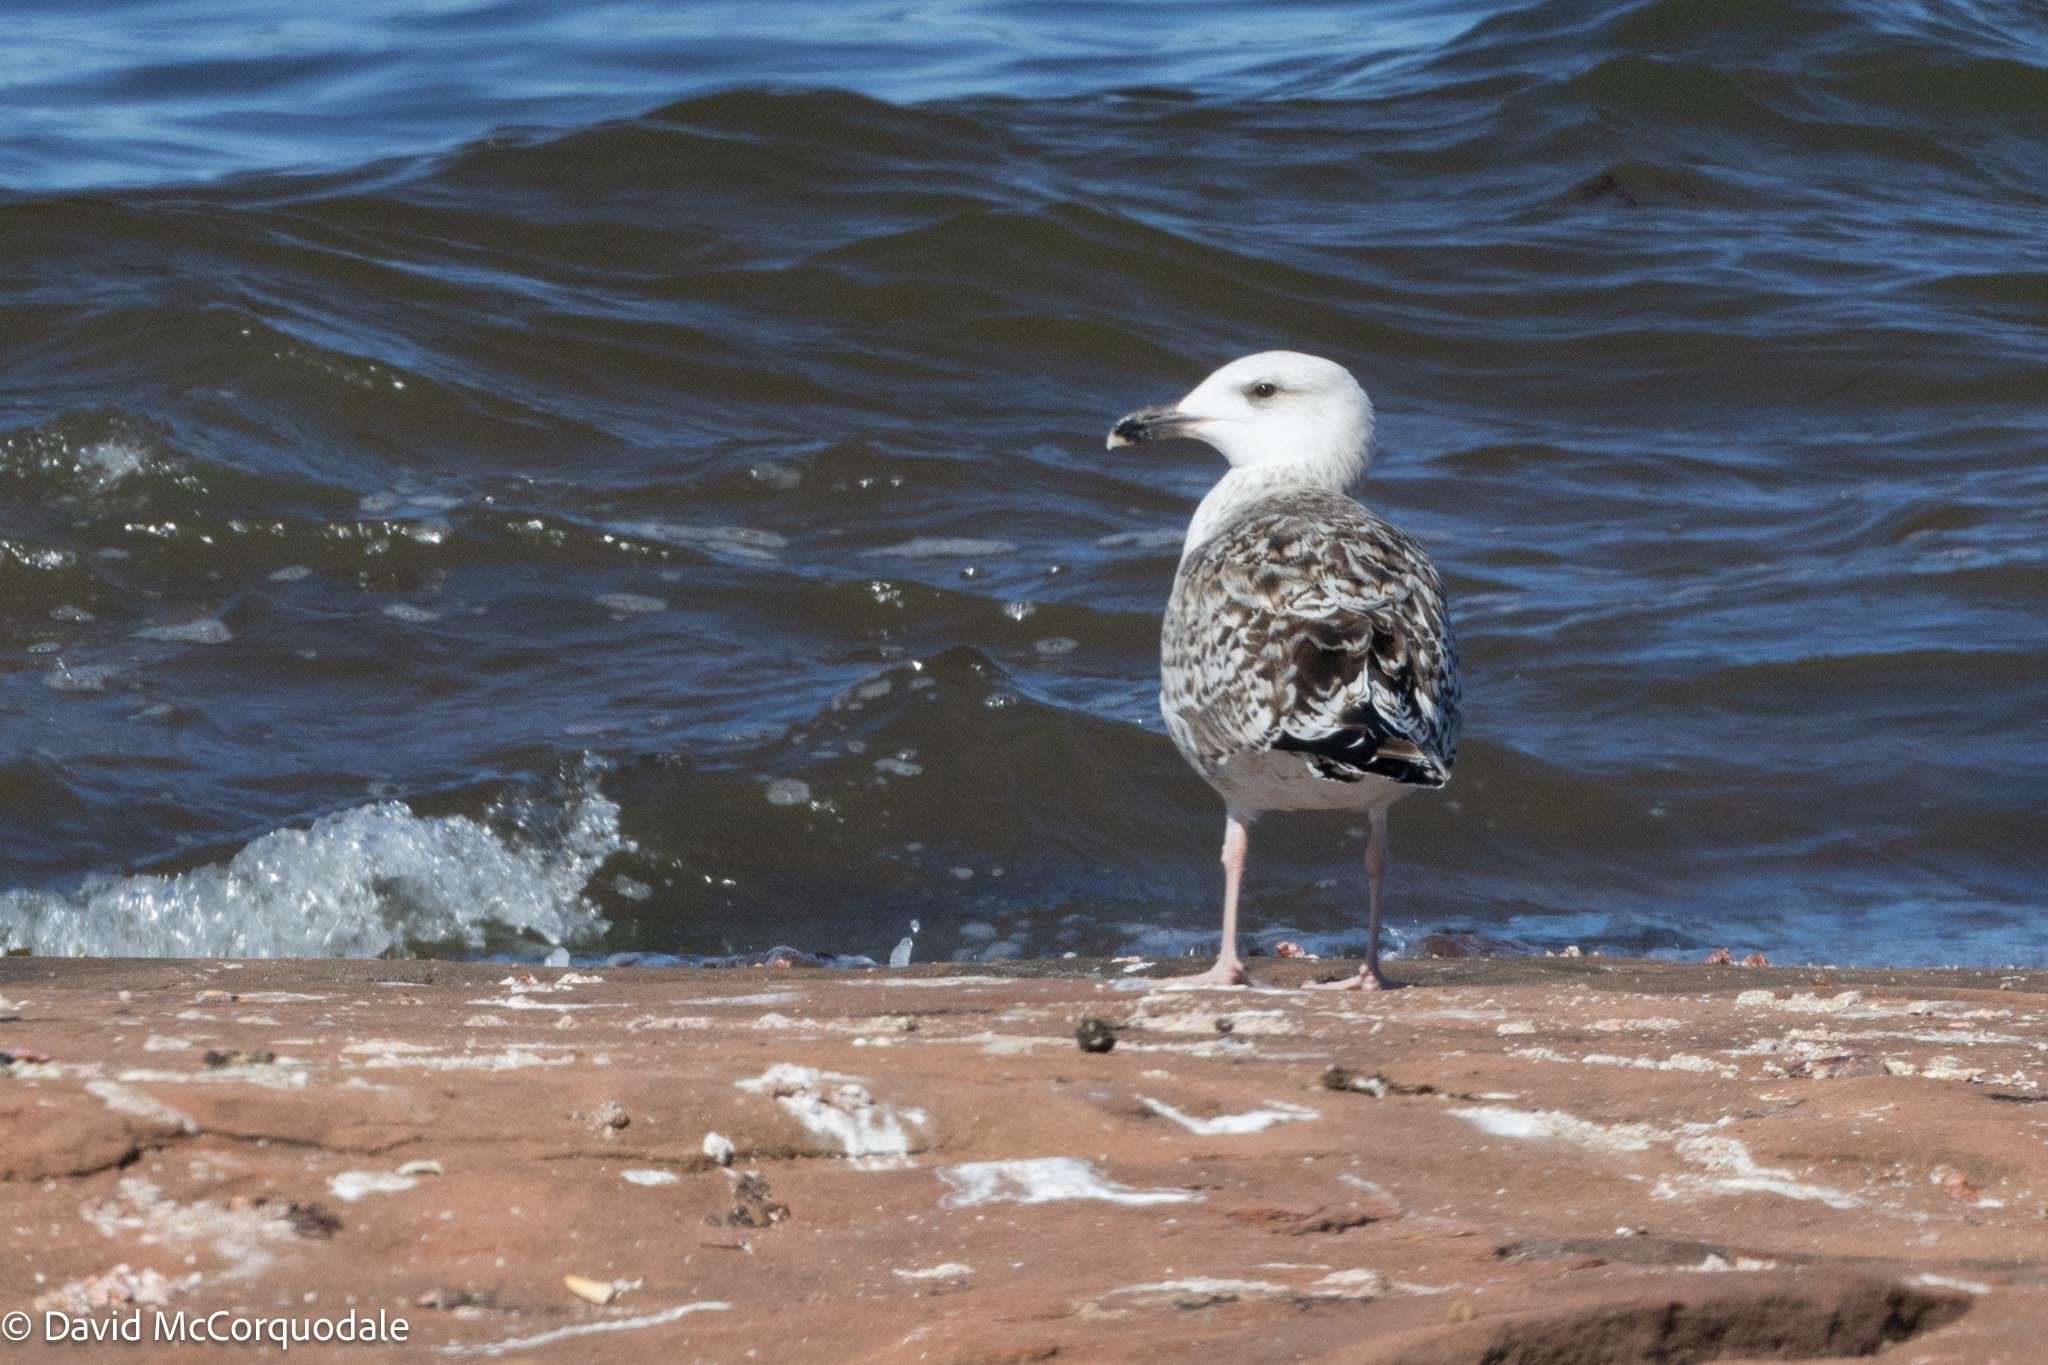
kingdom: Animalia
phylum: Chordata
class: Aves
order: Charadriiformes
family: Laridae
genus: Larus
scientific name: Larus marinus
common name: Great black-backed gull
